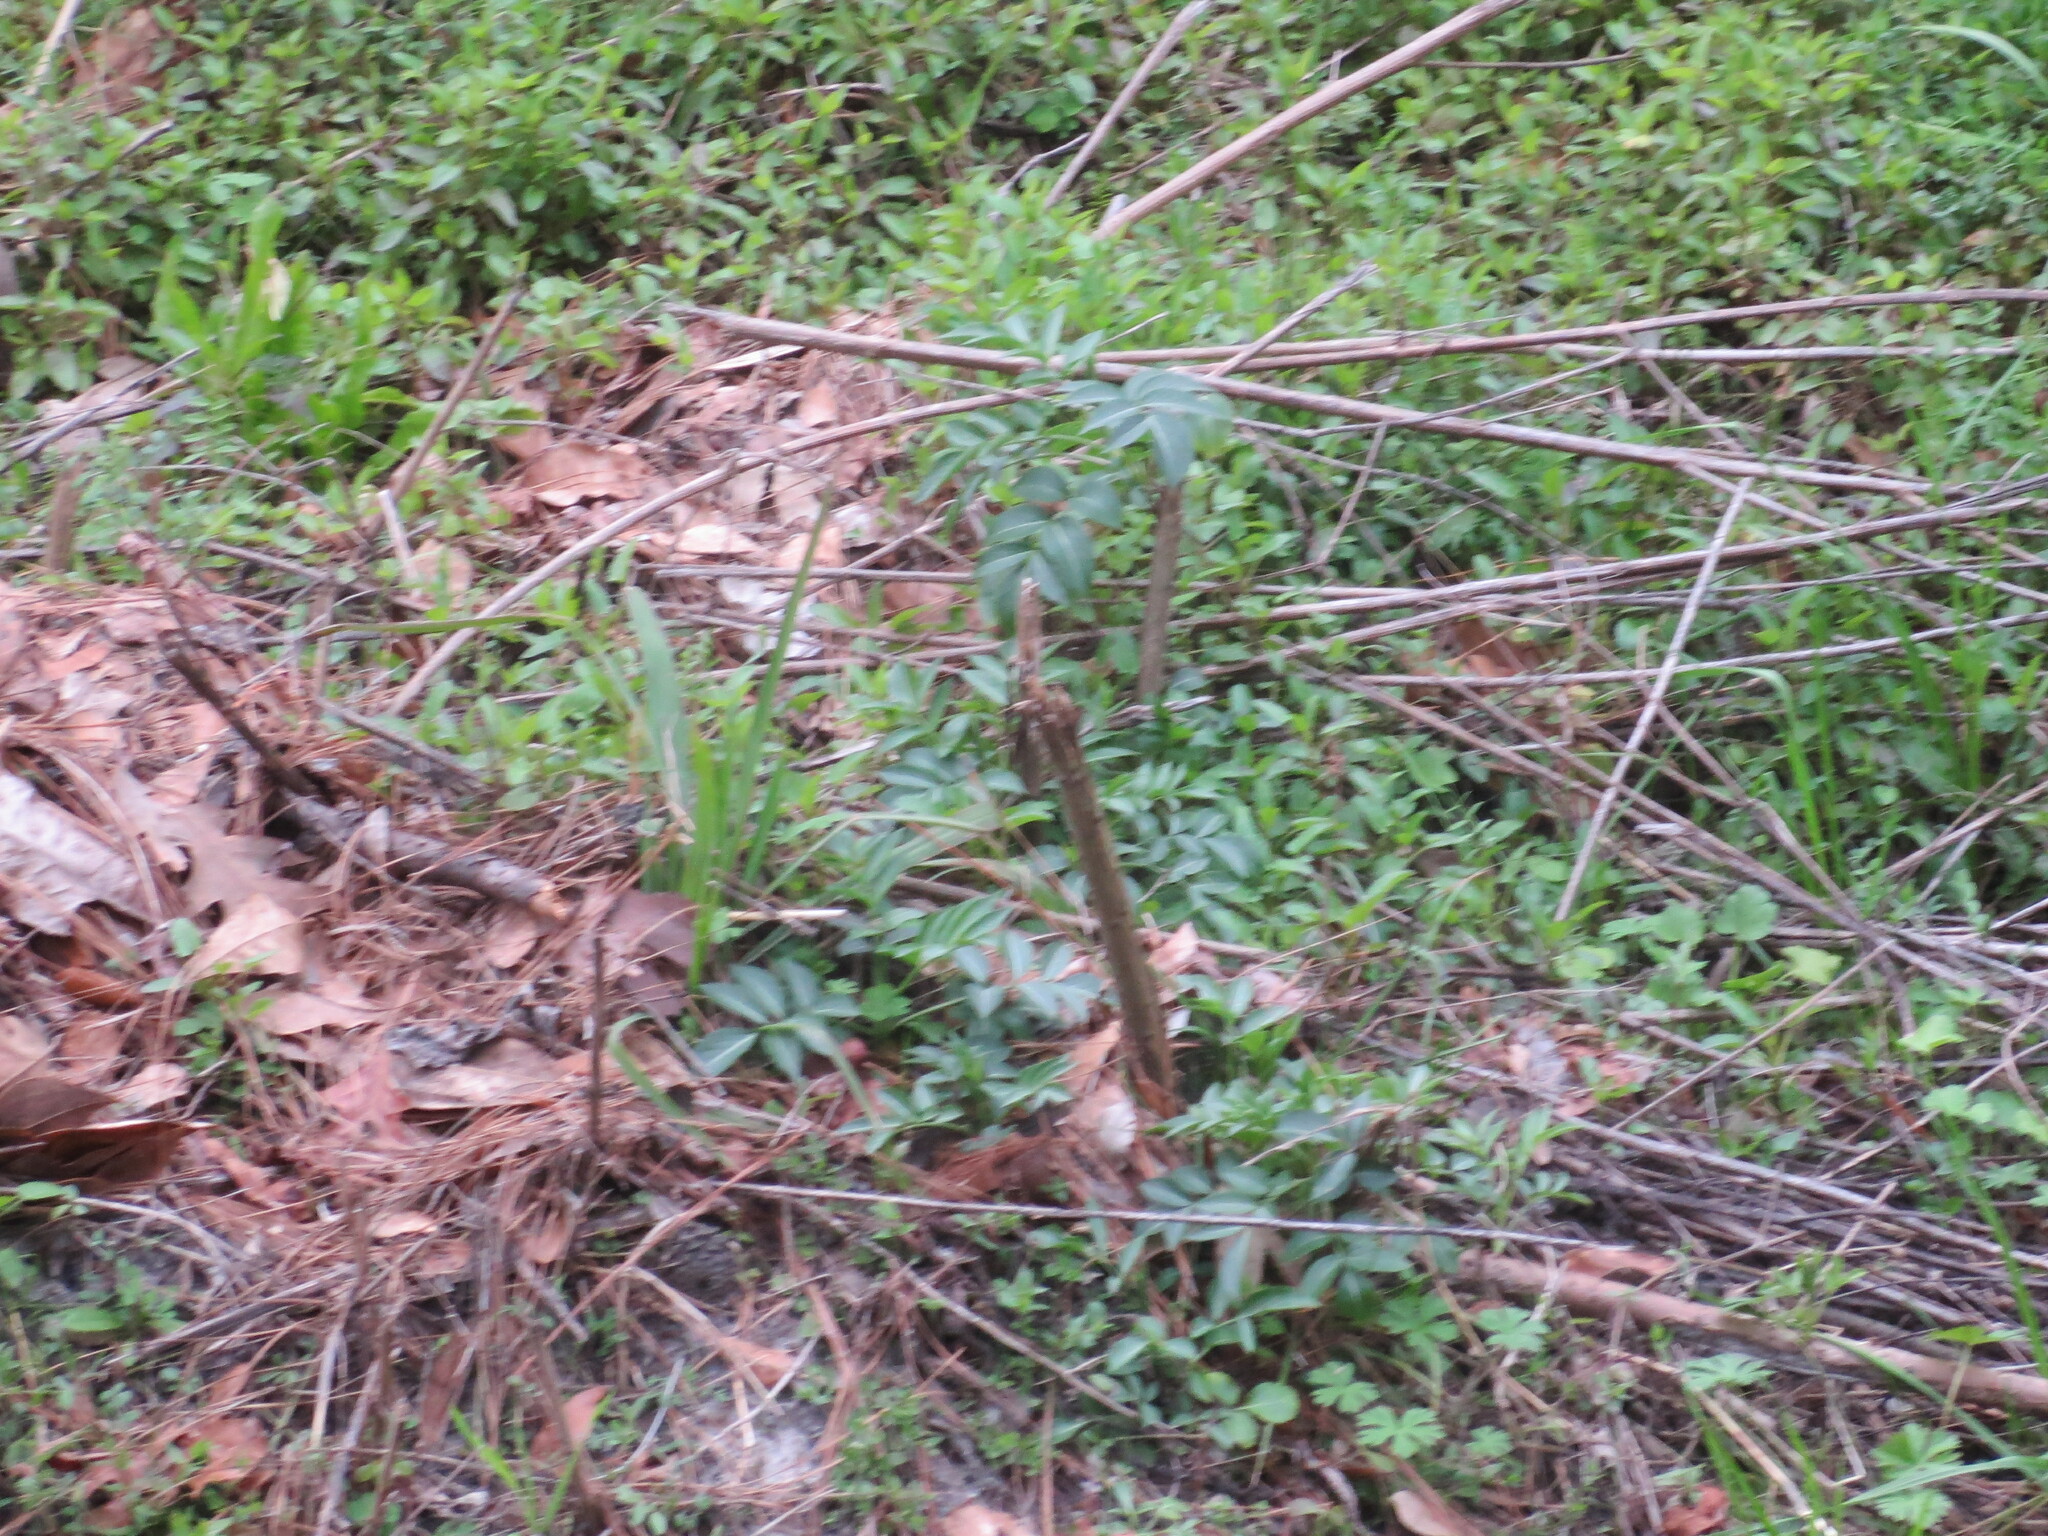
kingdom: Plantae
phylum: Tracheophyta
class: Magnoliopsida
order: Dipsacales
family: Viburnaceae
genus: Sambucus
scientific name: Sambucus canadensis
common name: American elder
